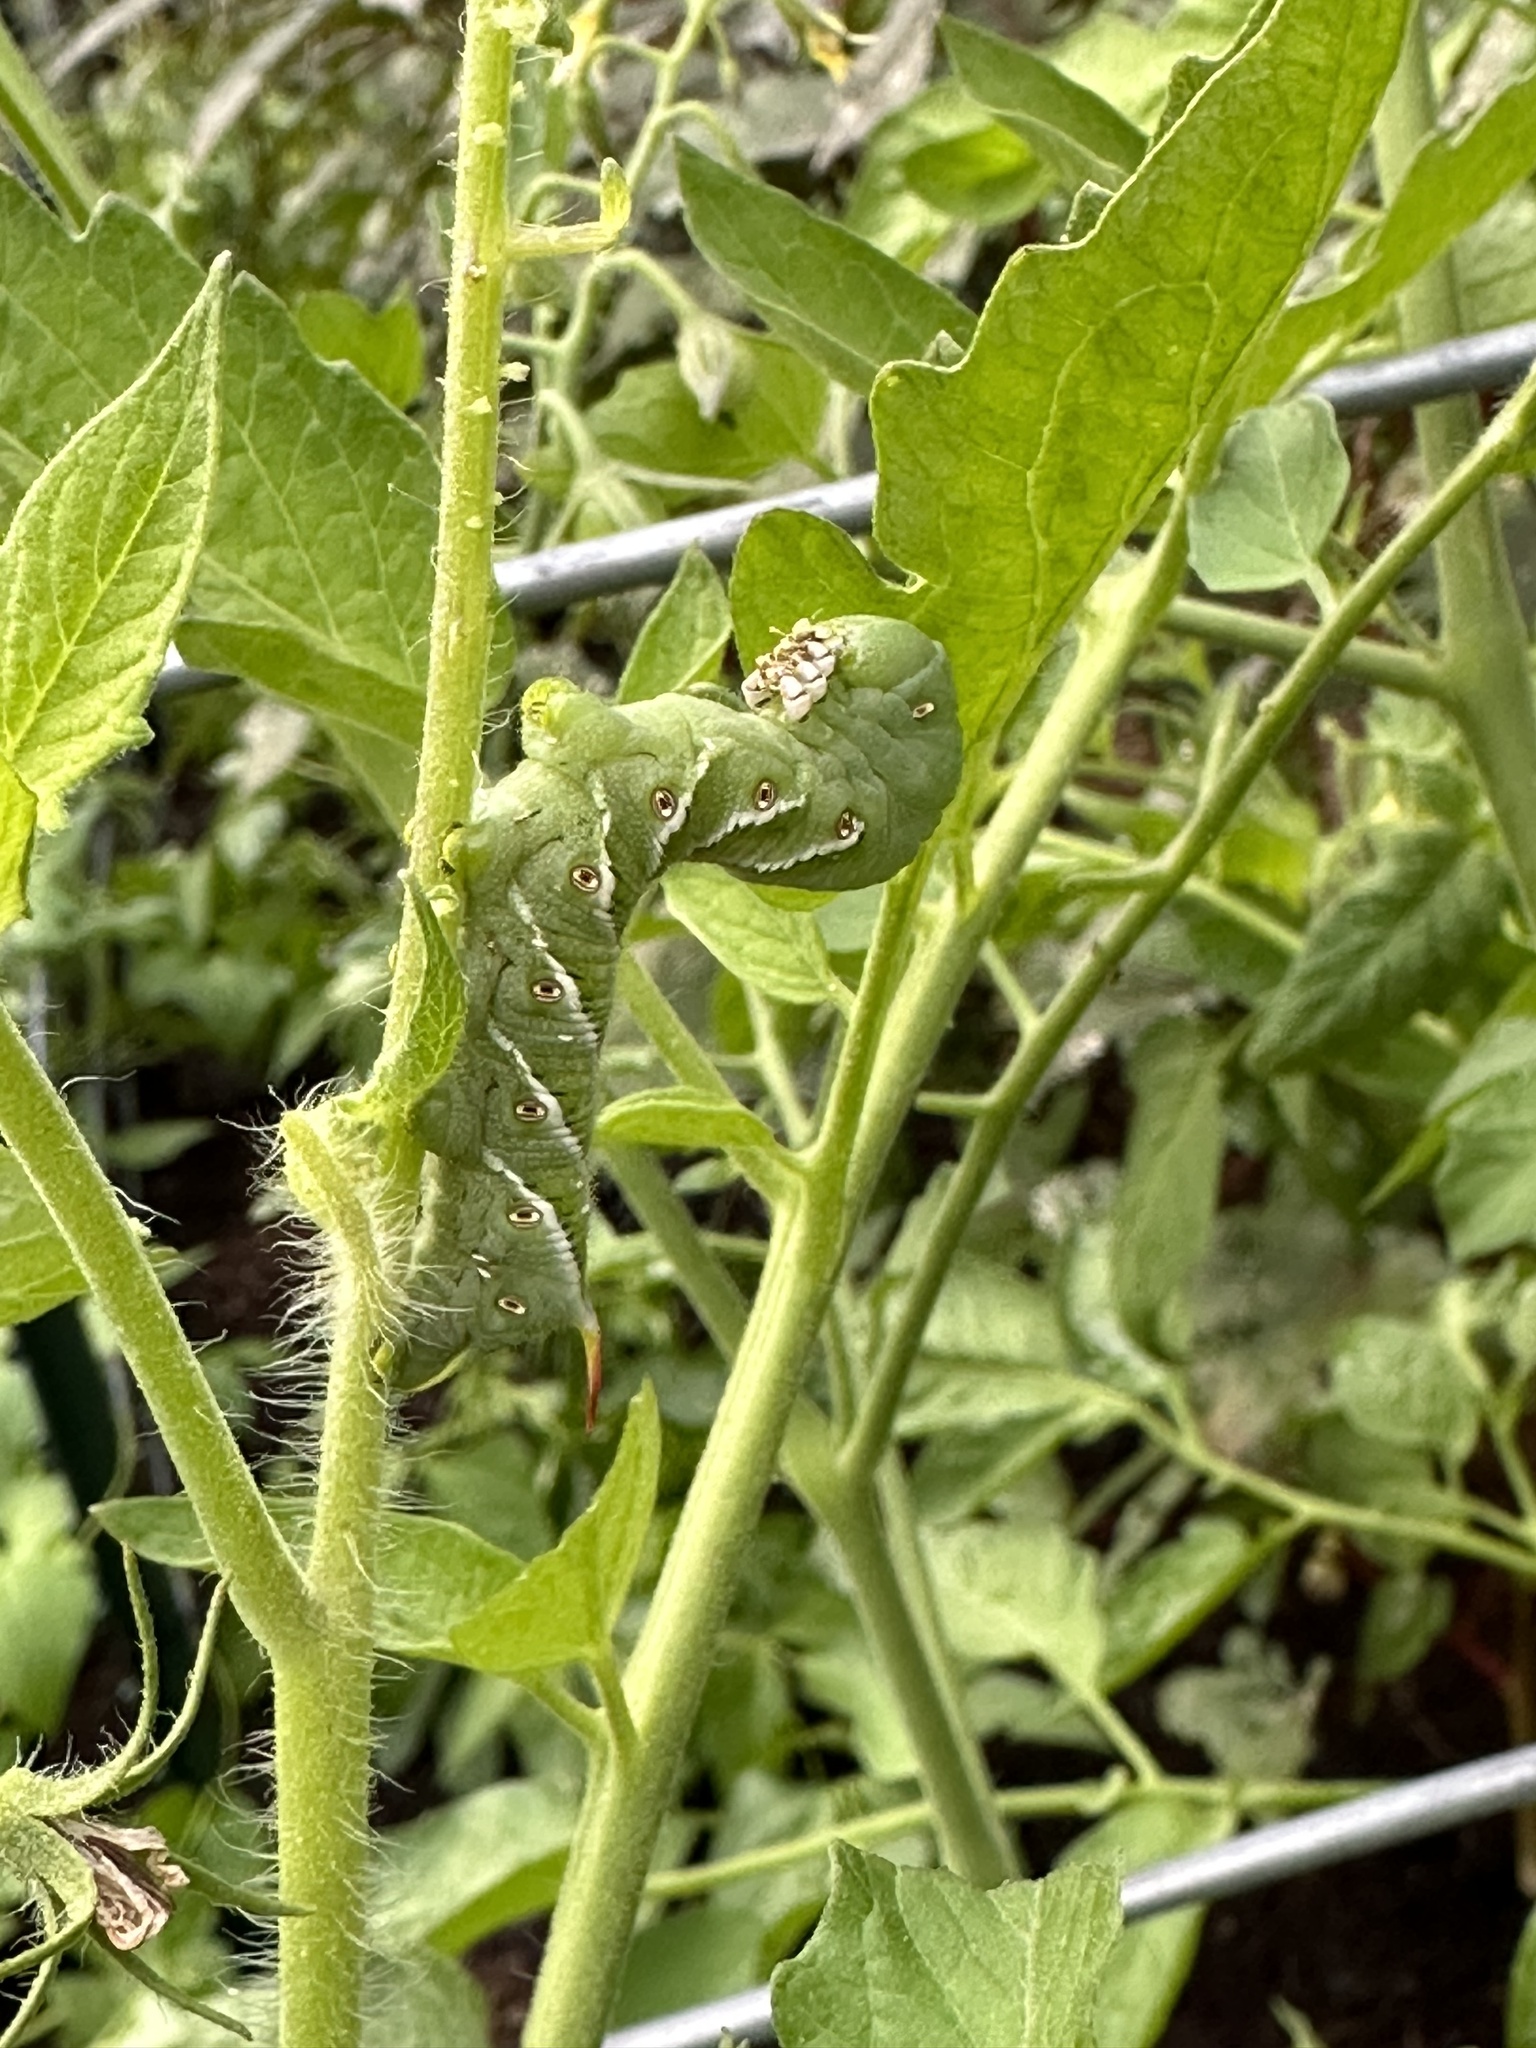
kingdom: Animalia
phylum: Arthropoda
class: Insecta
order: Lepidoptera
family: Sphingidae
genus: Manduca
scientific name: Manduca sexta
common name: Carolina sphinx
